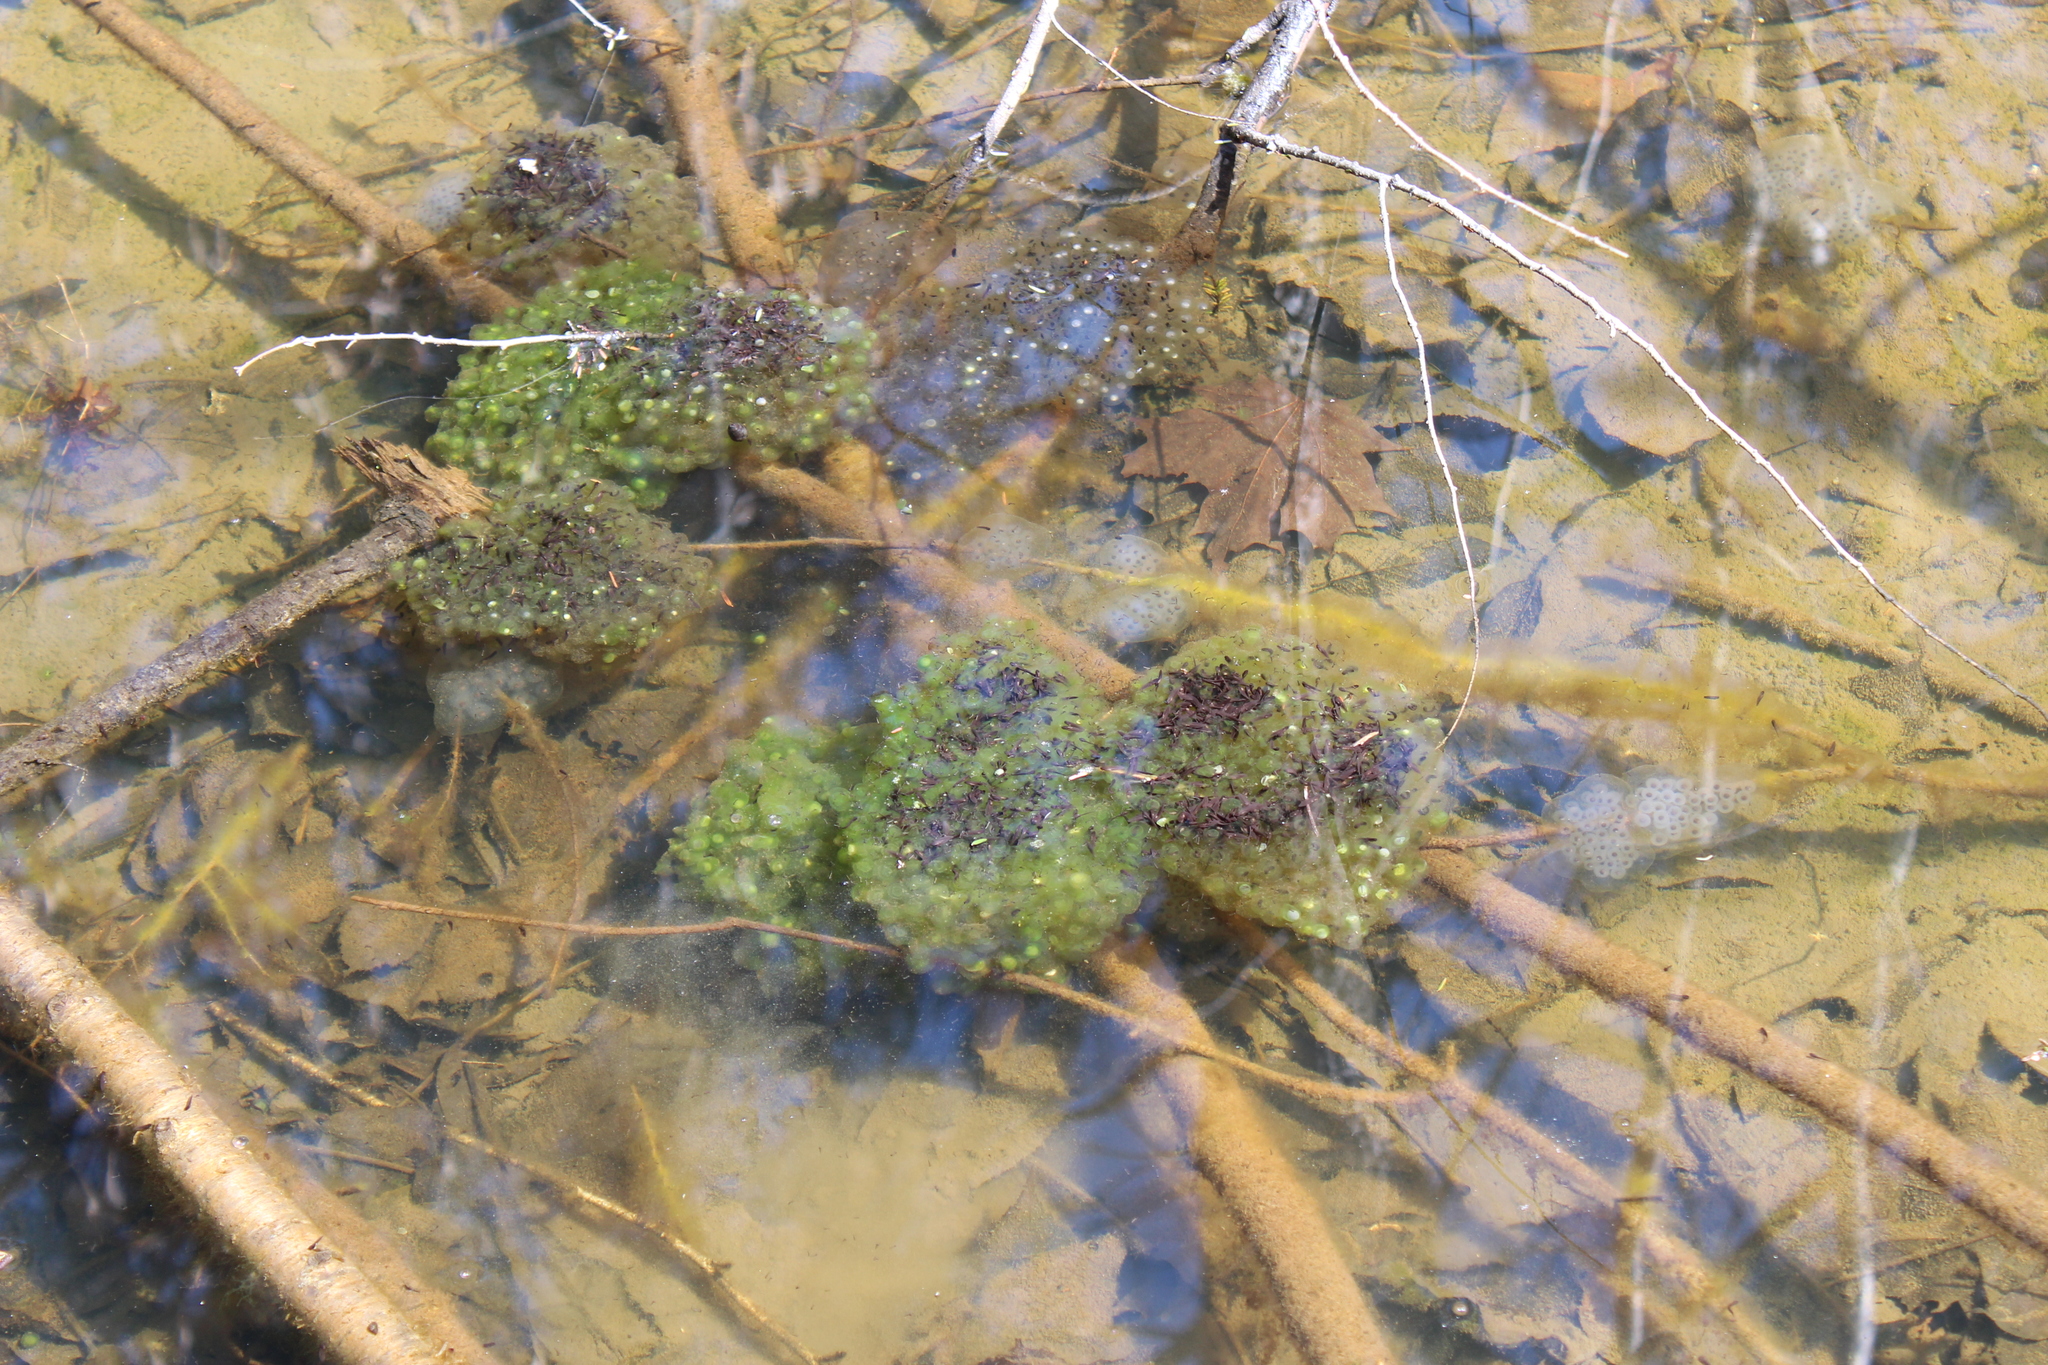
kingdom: Animalia
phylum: Chordata
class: Amphibia
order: Anura
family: Ranidae
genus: Lithobates
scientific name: Lithobates sylvaticus
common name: Wood frog
